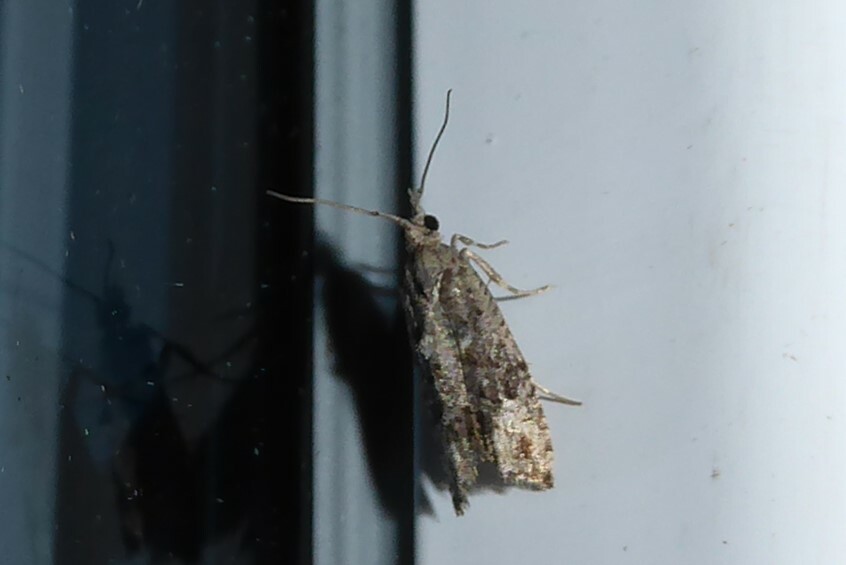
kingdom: Animalia
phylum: Arthropoda
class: Insecta
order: Lepidoptera
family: Tortricidae
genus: Strepsicrates
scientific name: Strepsicrates ejectana
